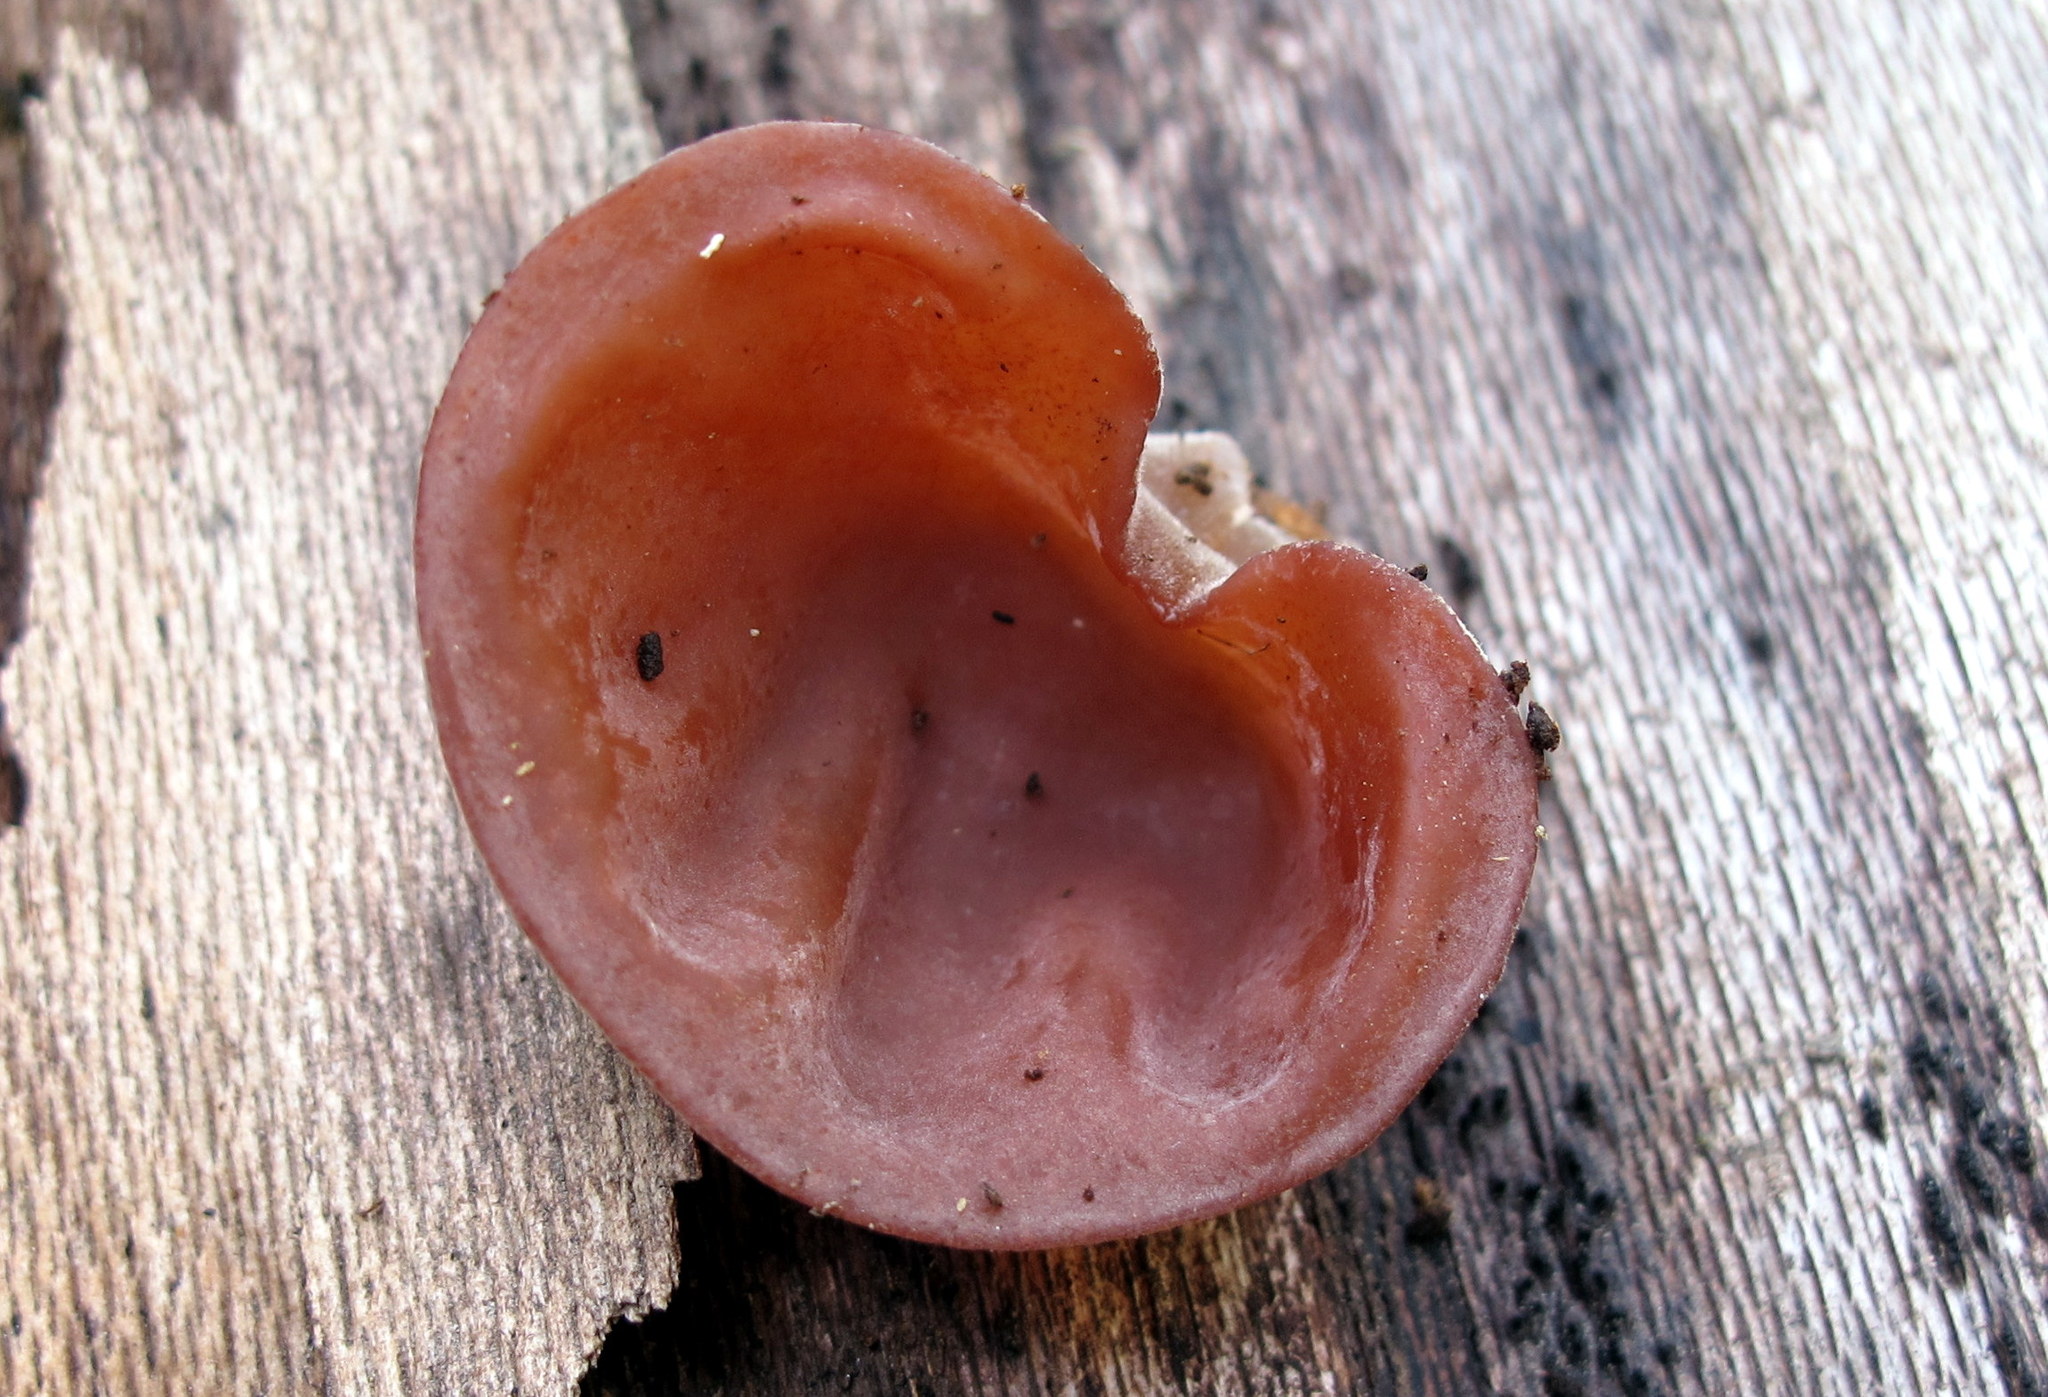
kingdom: Fungi
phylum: Basidiomycota
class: Agaricomycetes
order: Auriculariales
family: Auriculariaceae
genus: Auricularia
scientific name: Auricularia americana
